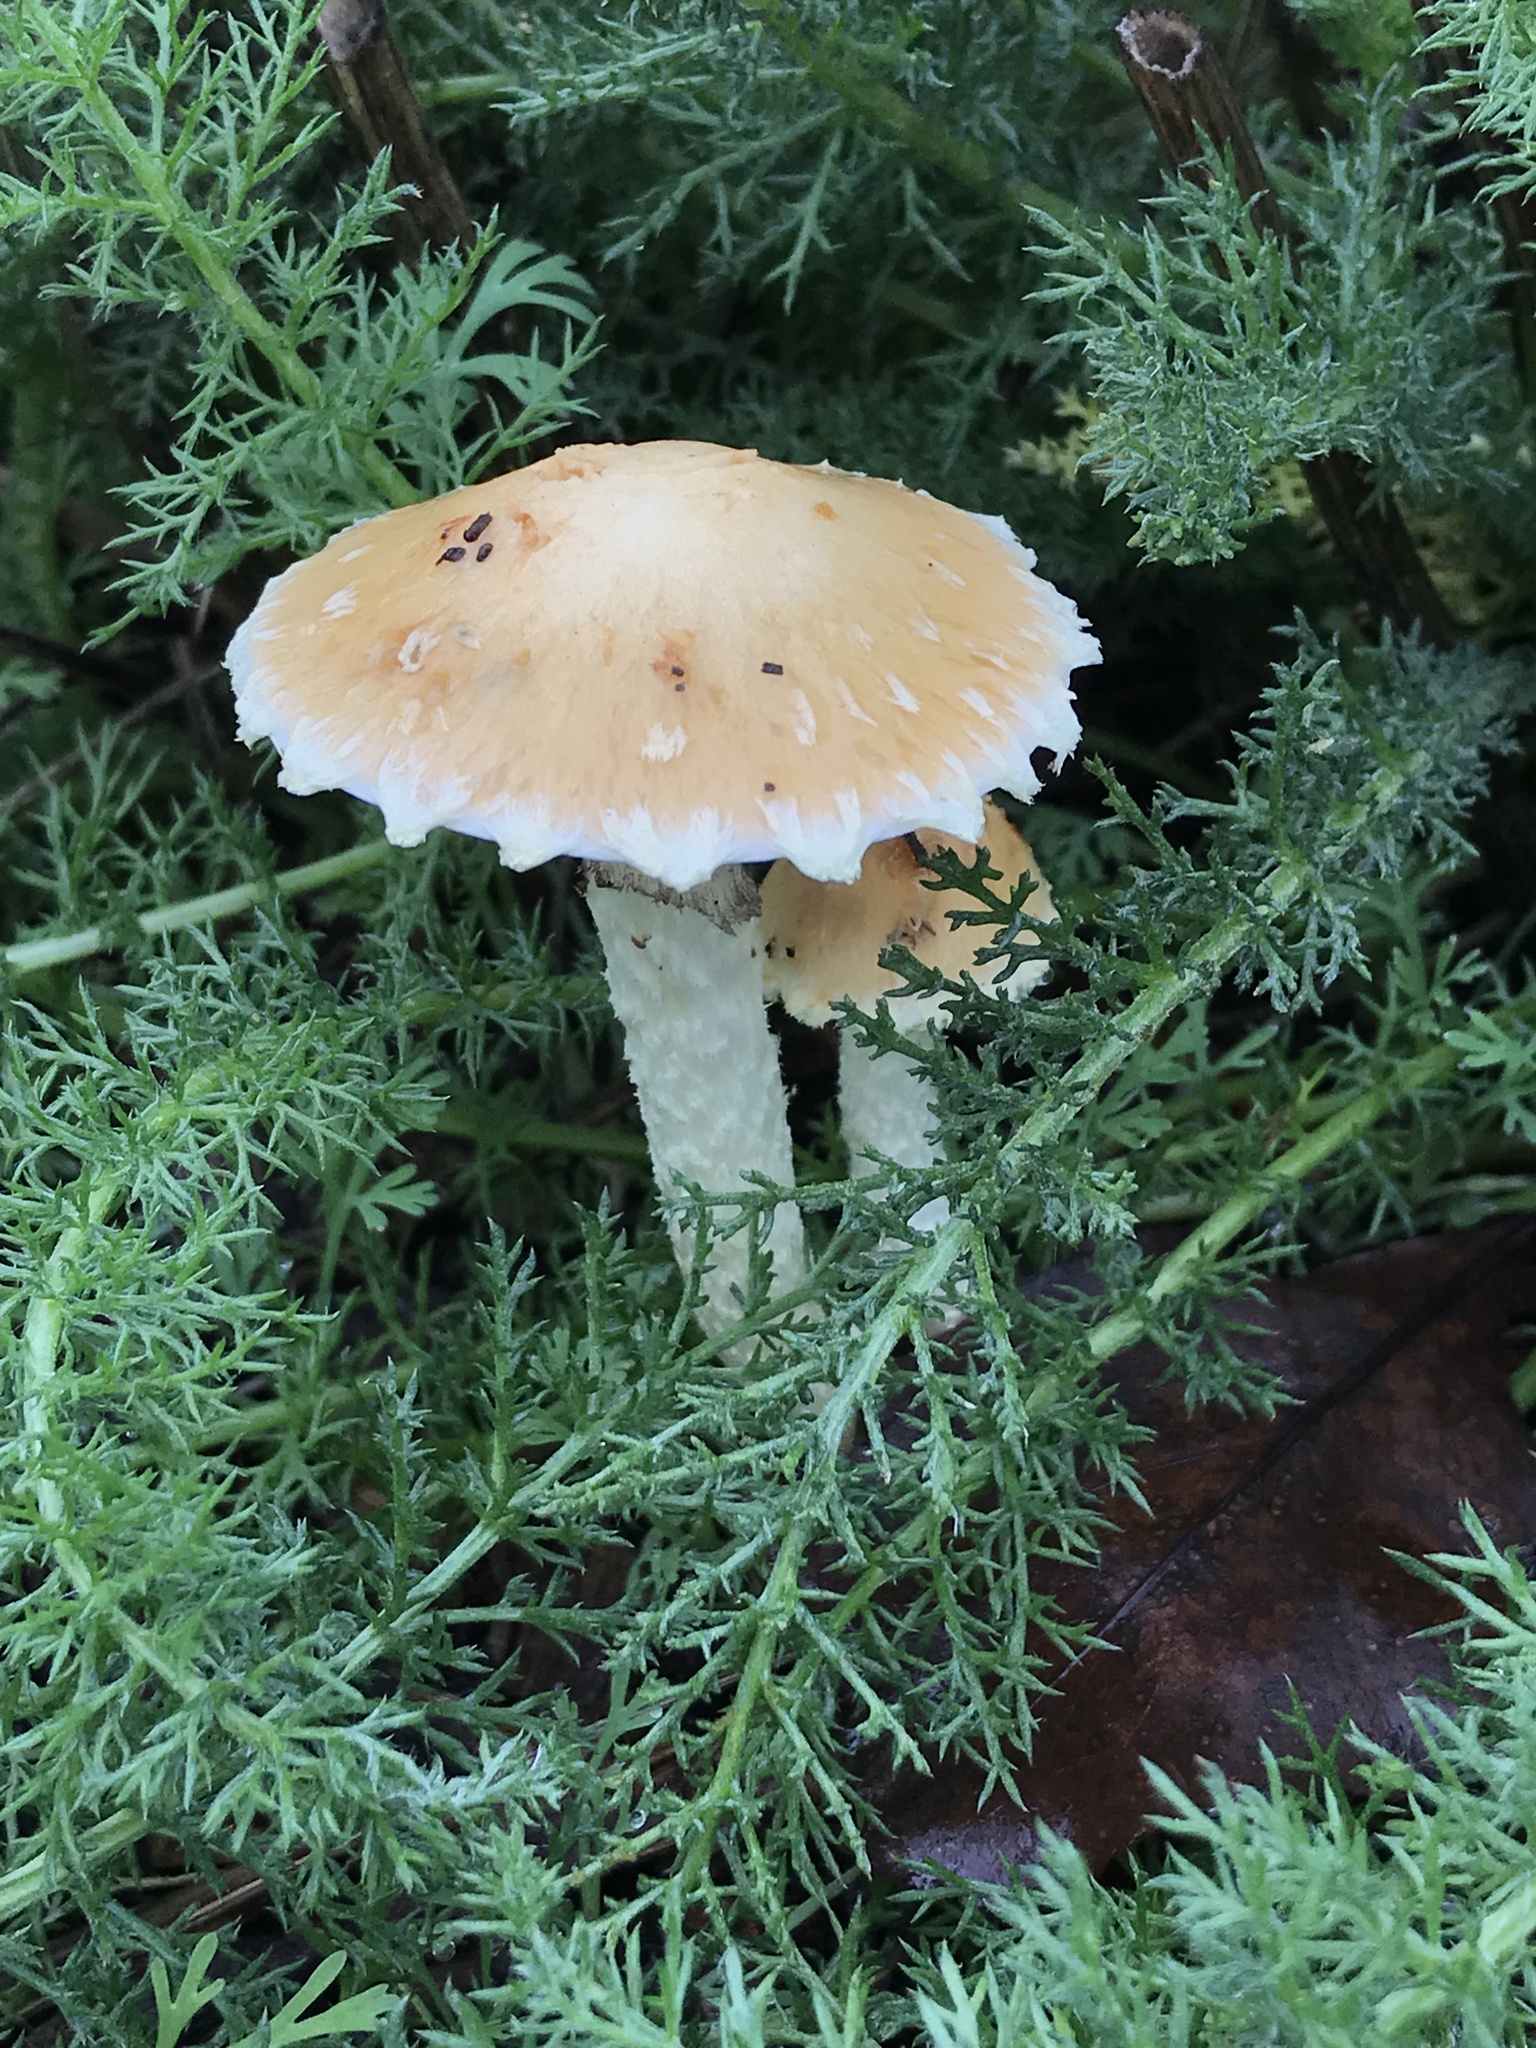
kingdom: Fungi
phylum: Basidiomycota
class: Agaricomycetes
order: Agaricales
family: Strophariaceae
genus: Leratiomyces
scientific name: Leratiomyces percevalii
